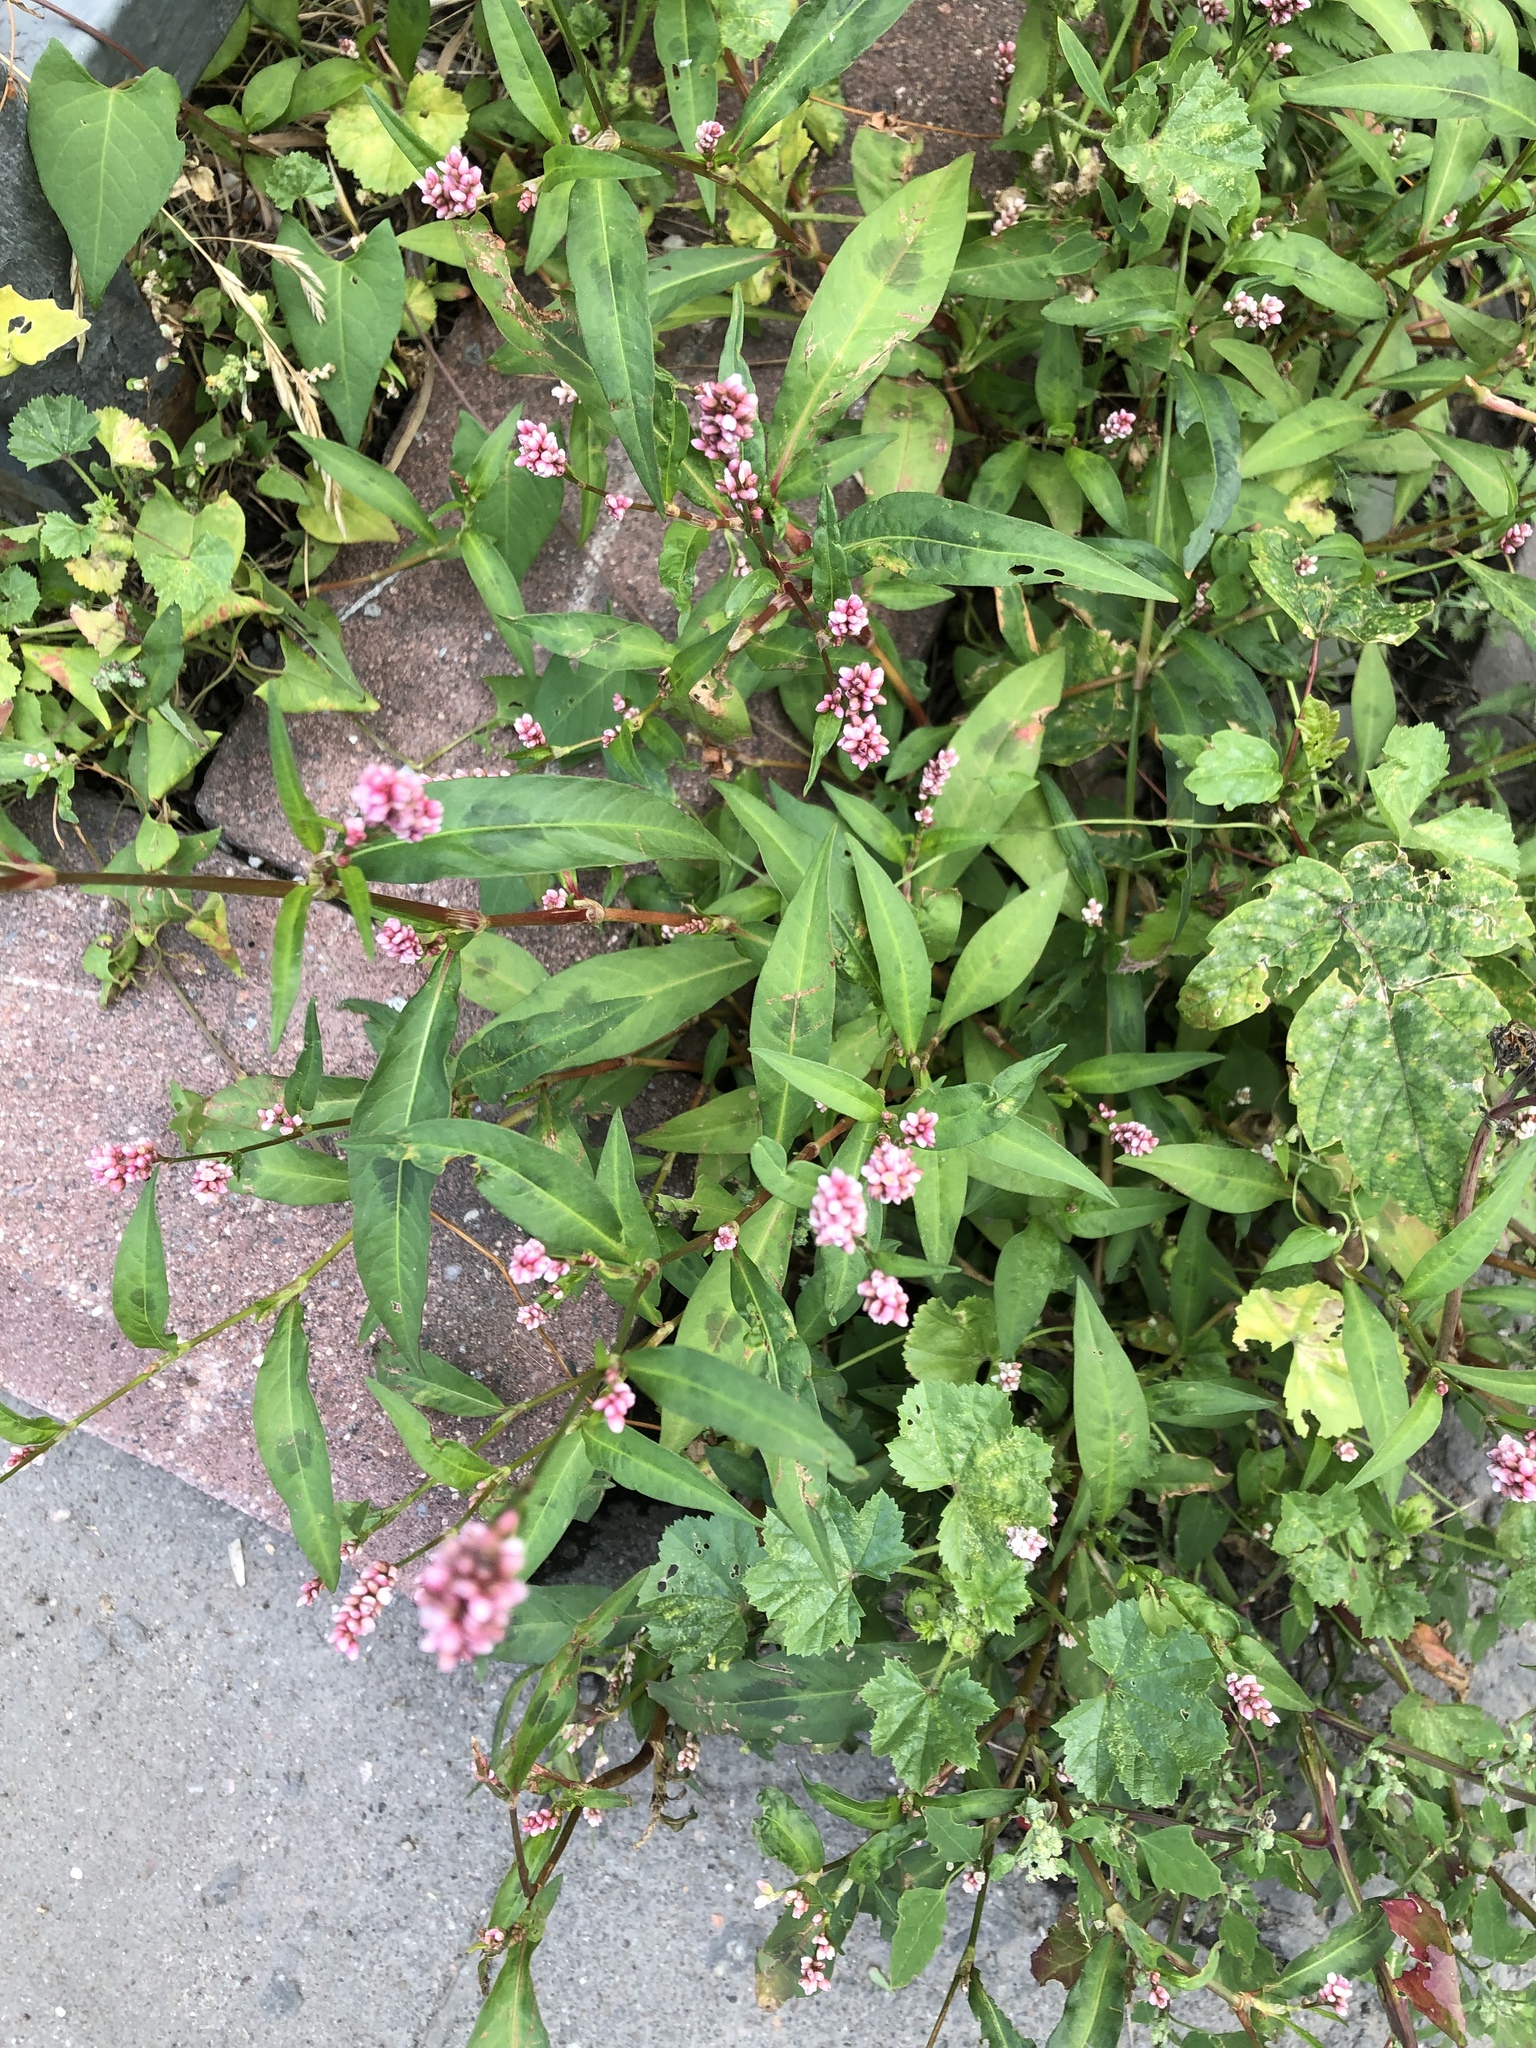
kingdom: Plantae
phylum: Tracheophyta
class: Magnoliopsida
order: Caryophyllales
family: Polygonaceae
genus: Persicaria
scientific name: Persicaria maculosa
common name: Redshank
